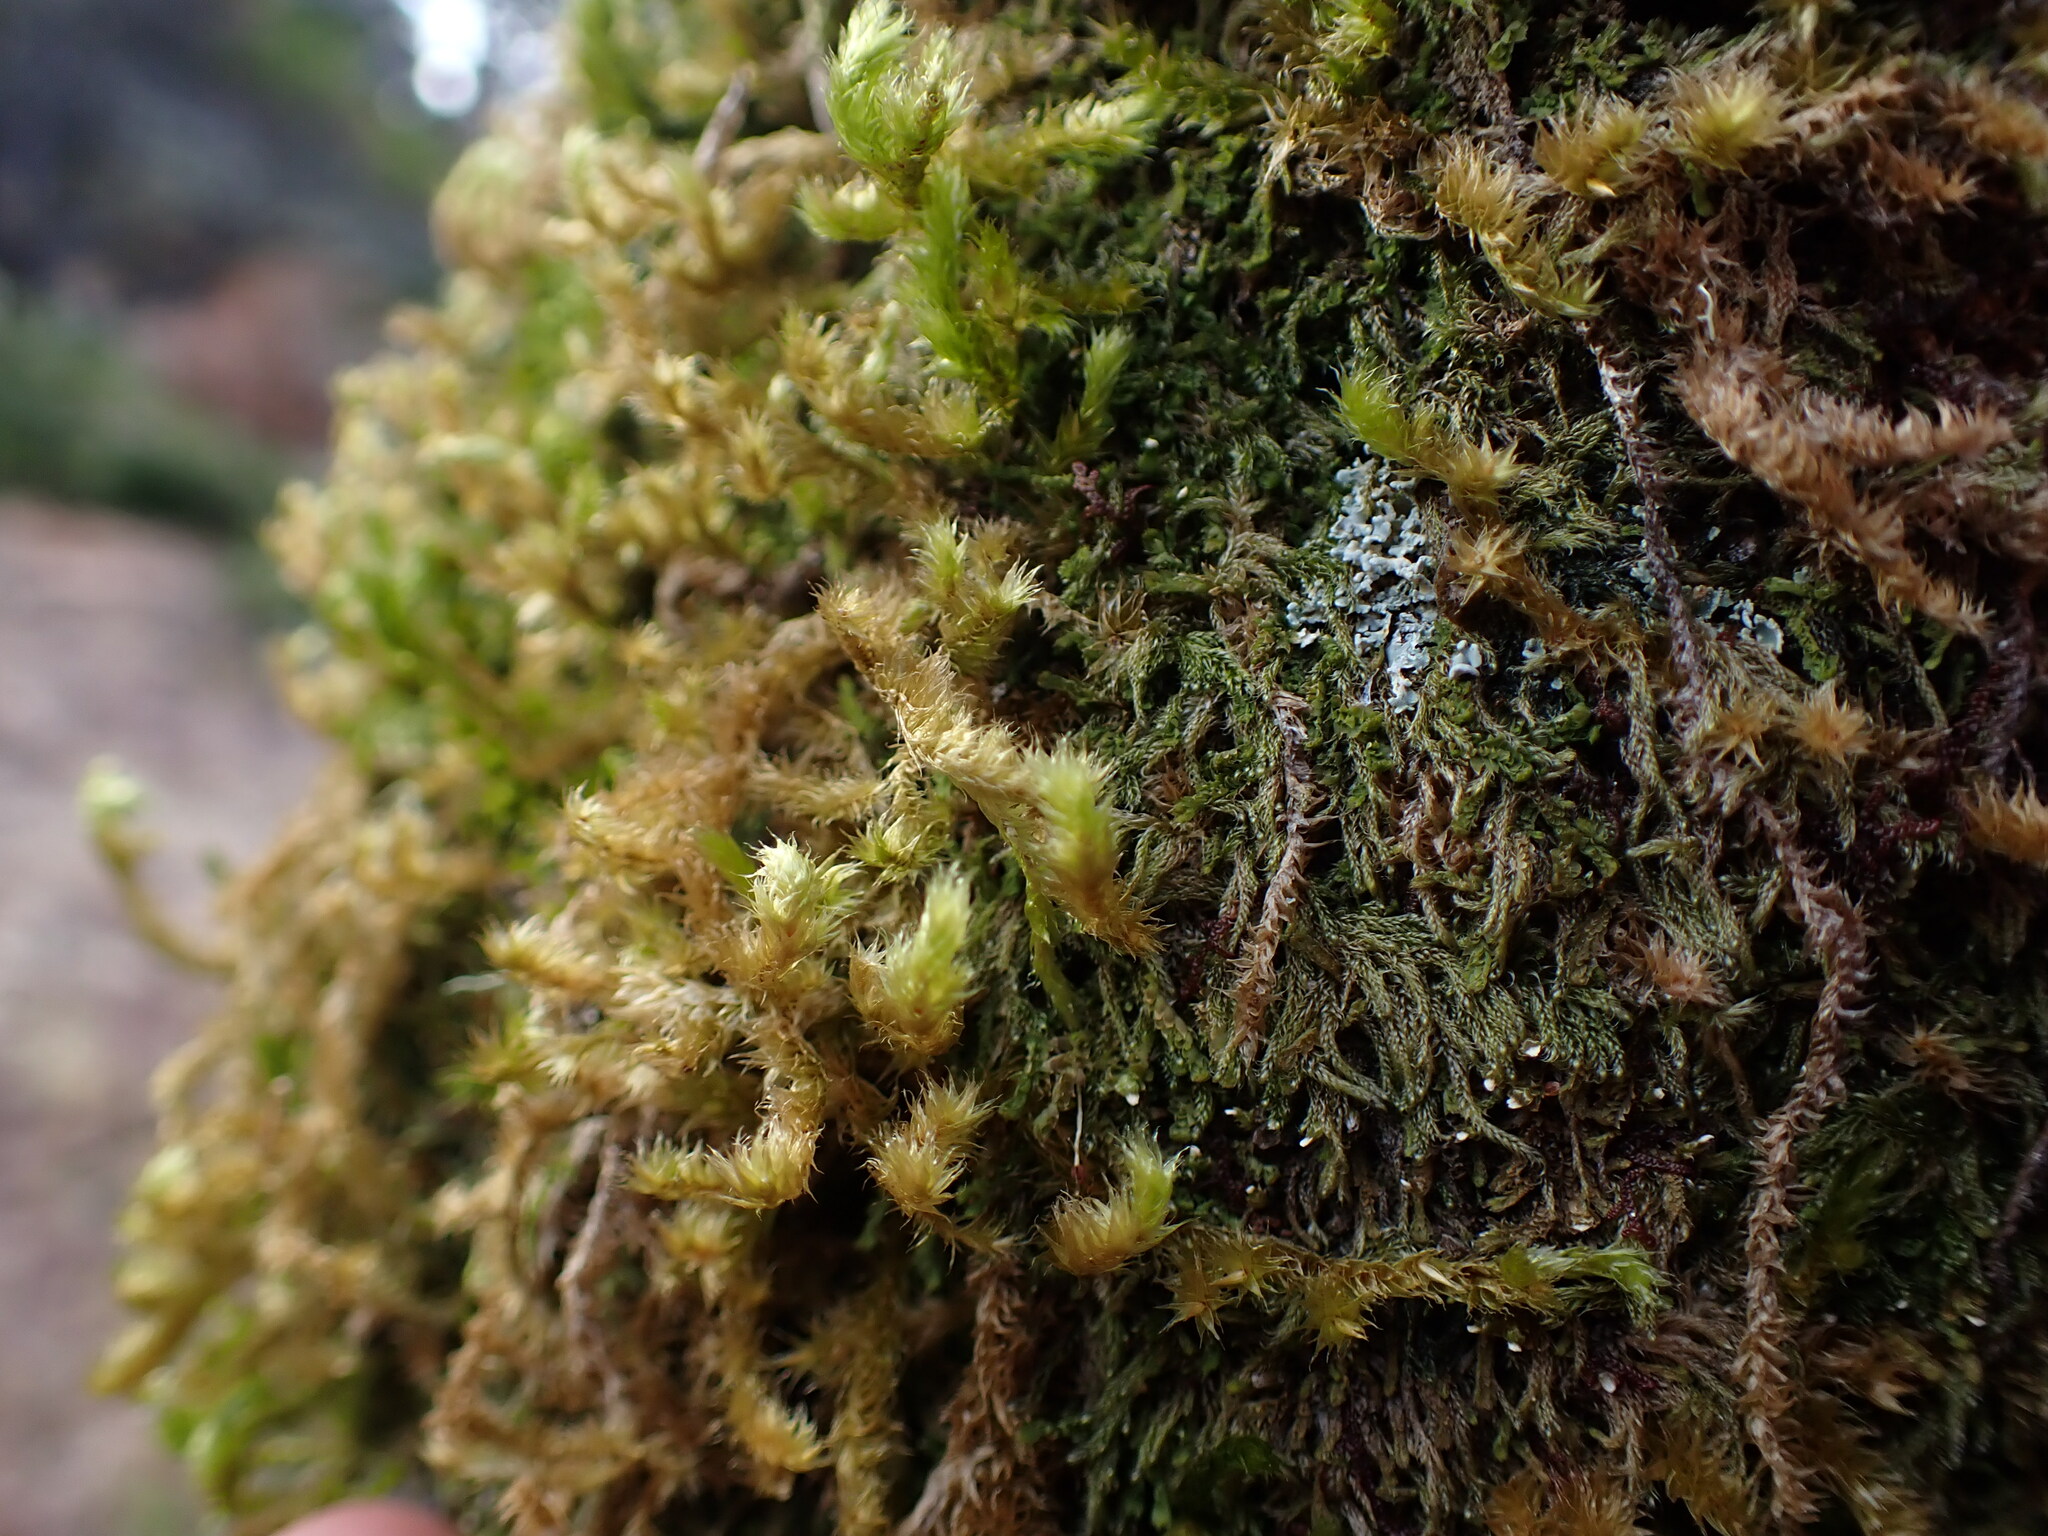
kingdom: Plantae
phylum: Bryophyta
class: Bryopsida
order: Hypnales
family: Antitrichiaceae
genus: Antitrichia
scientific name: Antitrichia curtipendula
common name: Pendulous wing-moss
